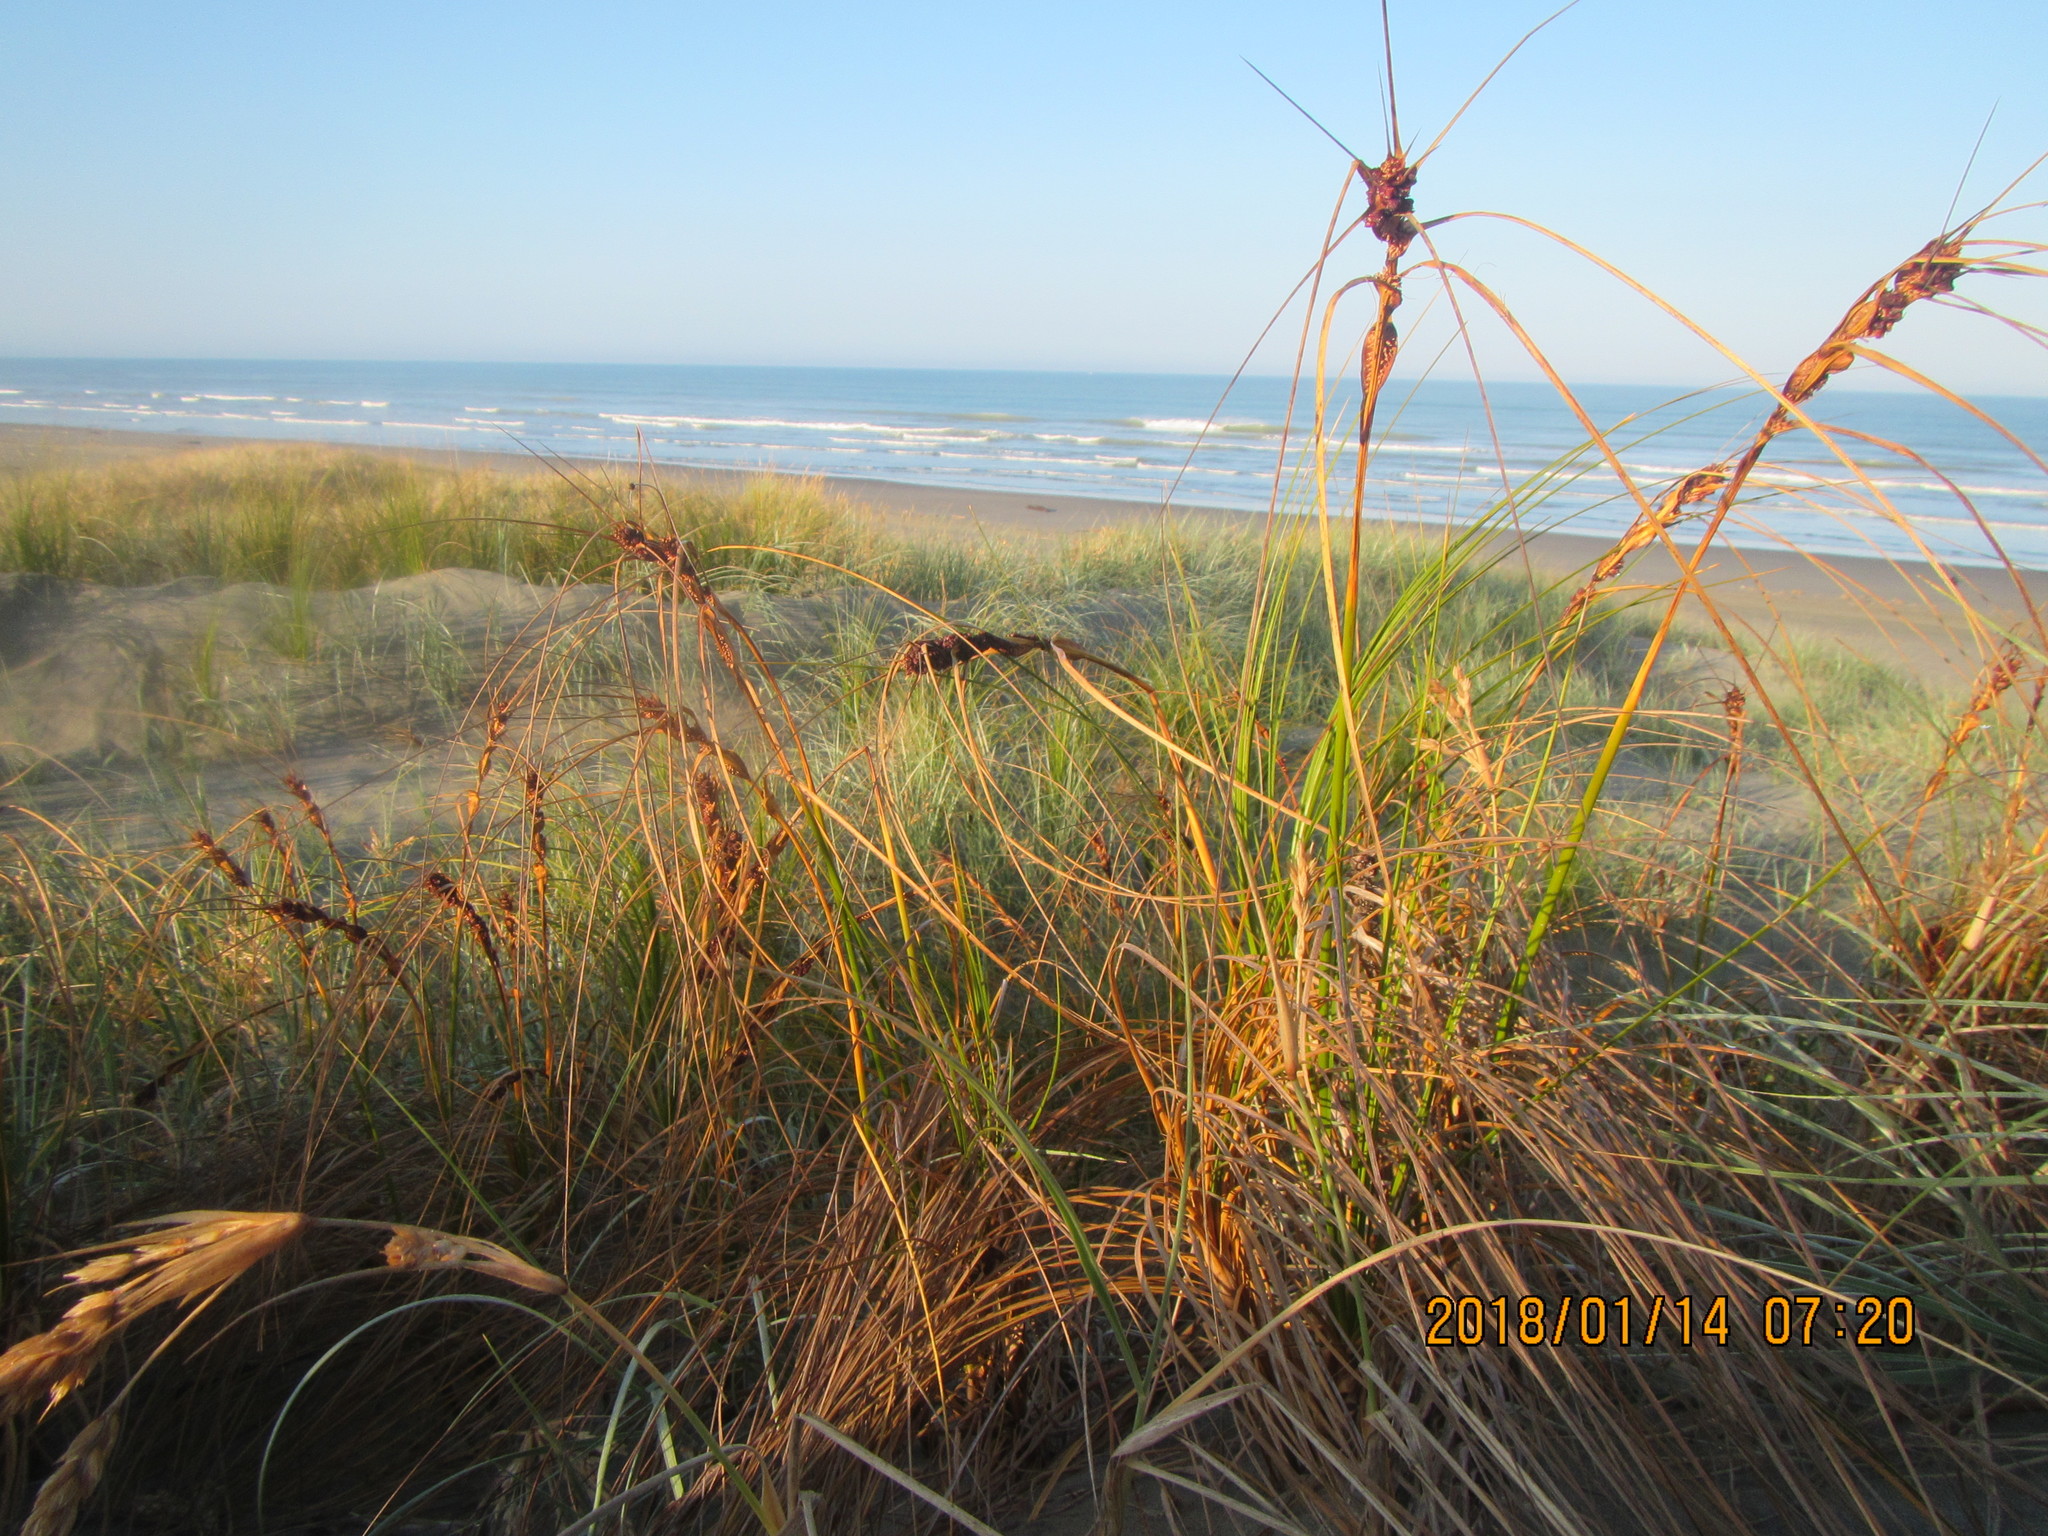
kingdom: Plantae
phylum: Tracheophyta
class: Liliopsida
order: Poales
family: Cyperaceae
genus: Ficinia
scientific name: Ficinia spiralis
